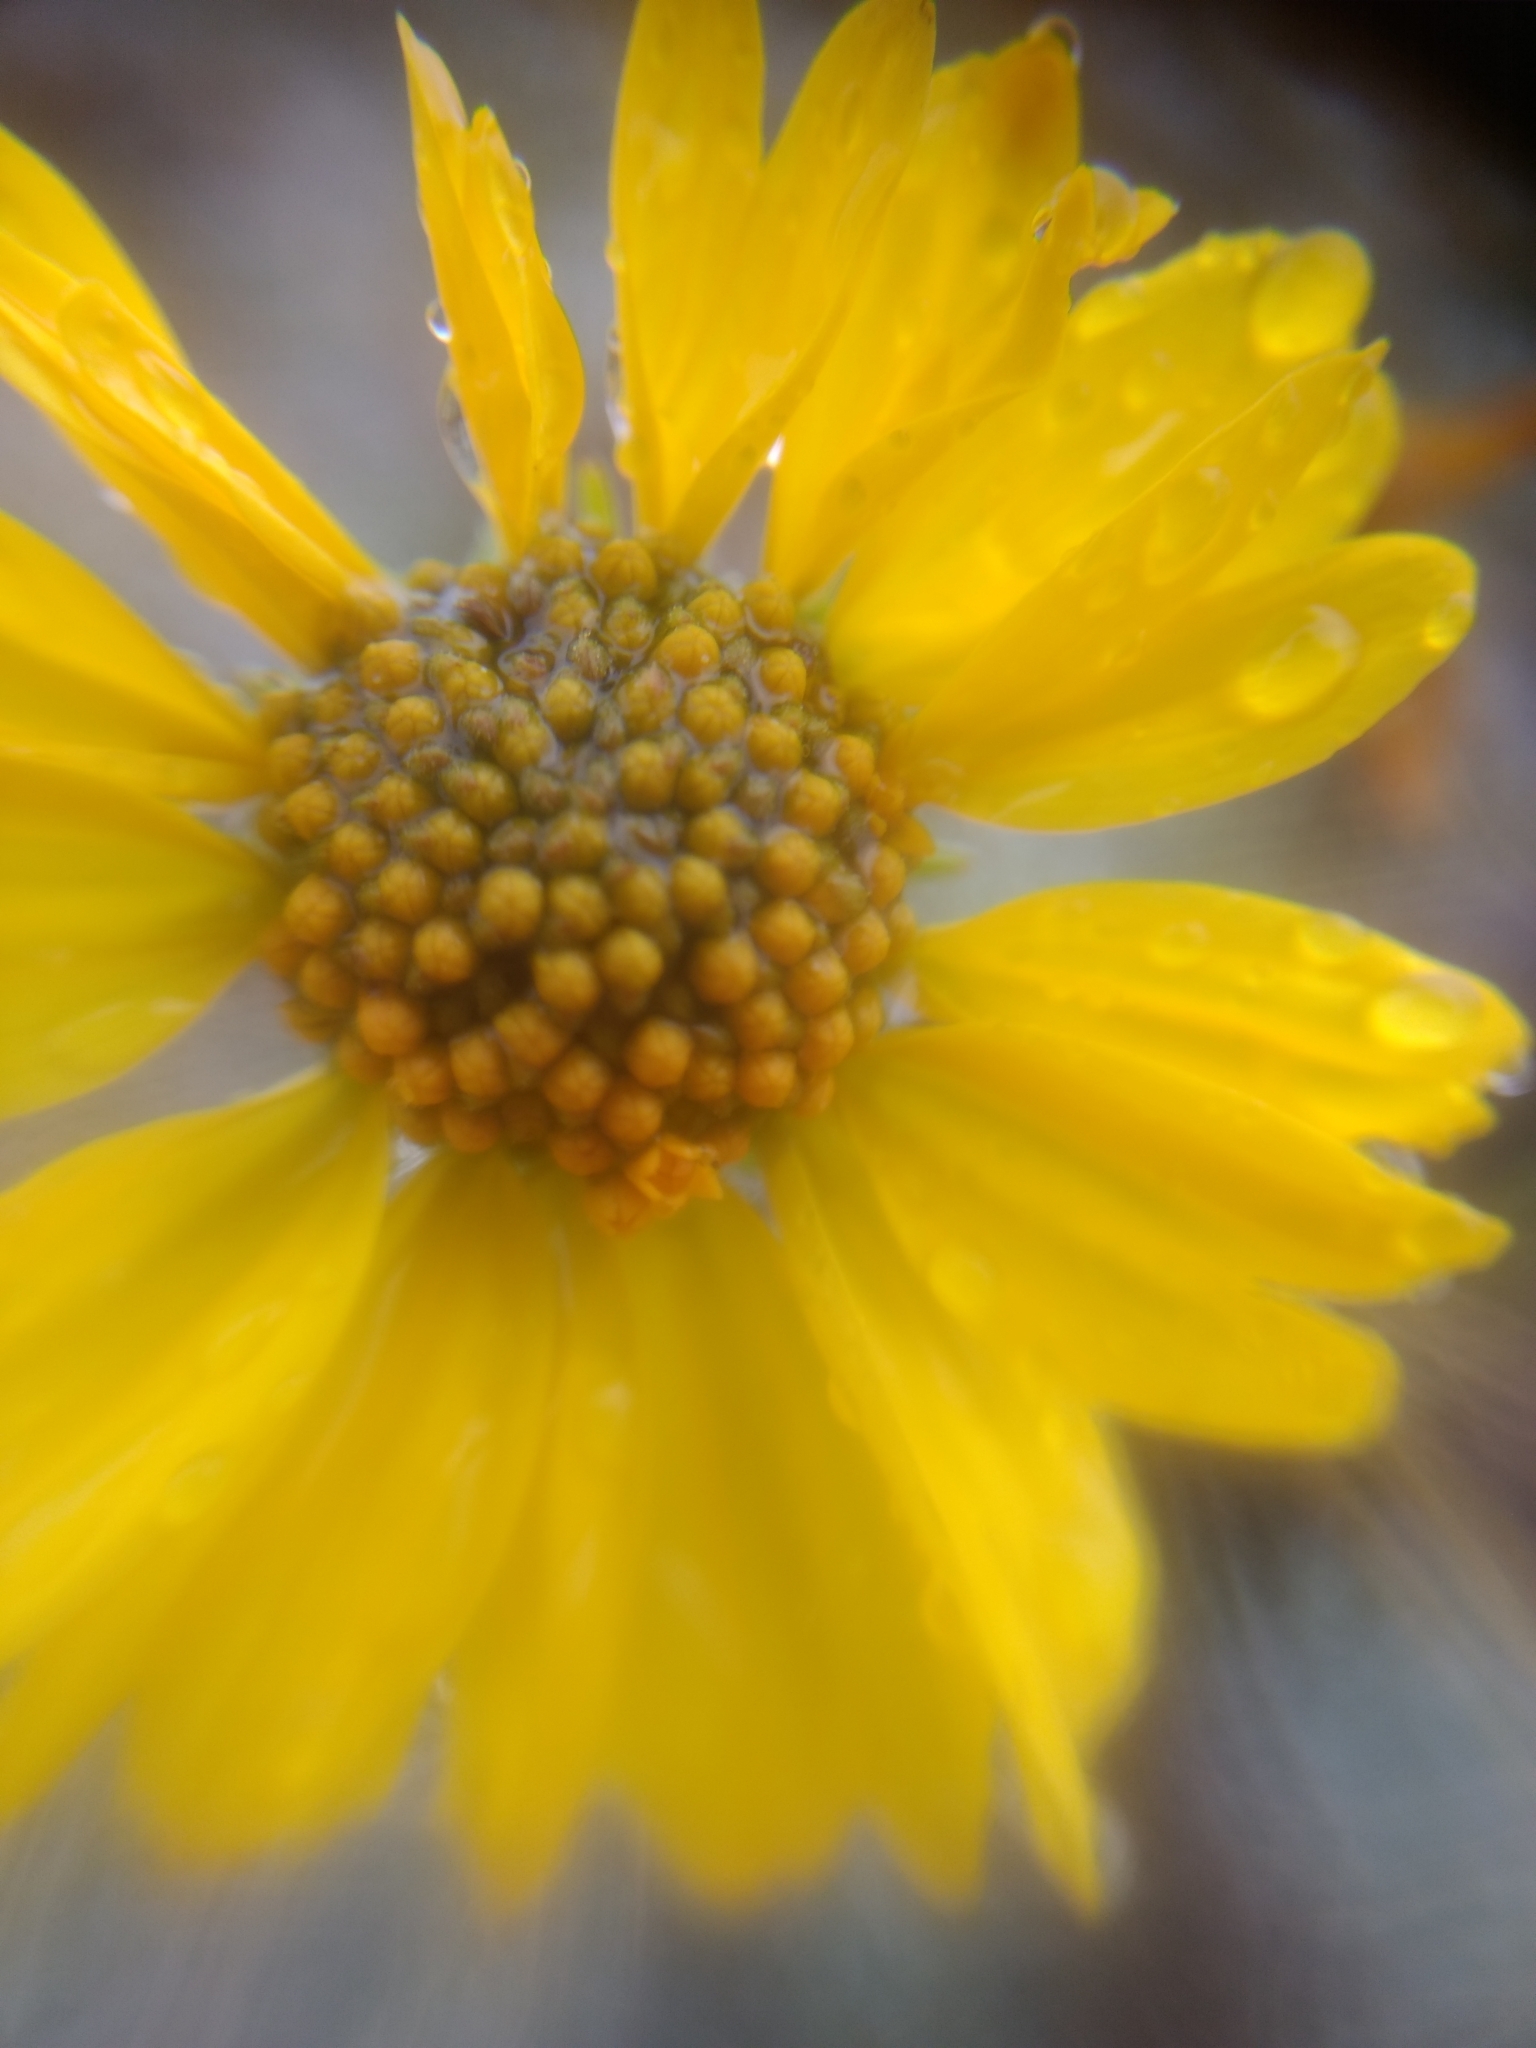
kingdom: Plantae
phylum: Tracheophyta
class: Magnoliopsida
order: Asterales
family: Asteraceae
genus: Encelia
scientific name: Encelia farinosa
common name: Brittlebush
